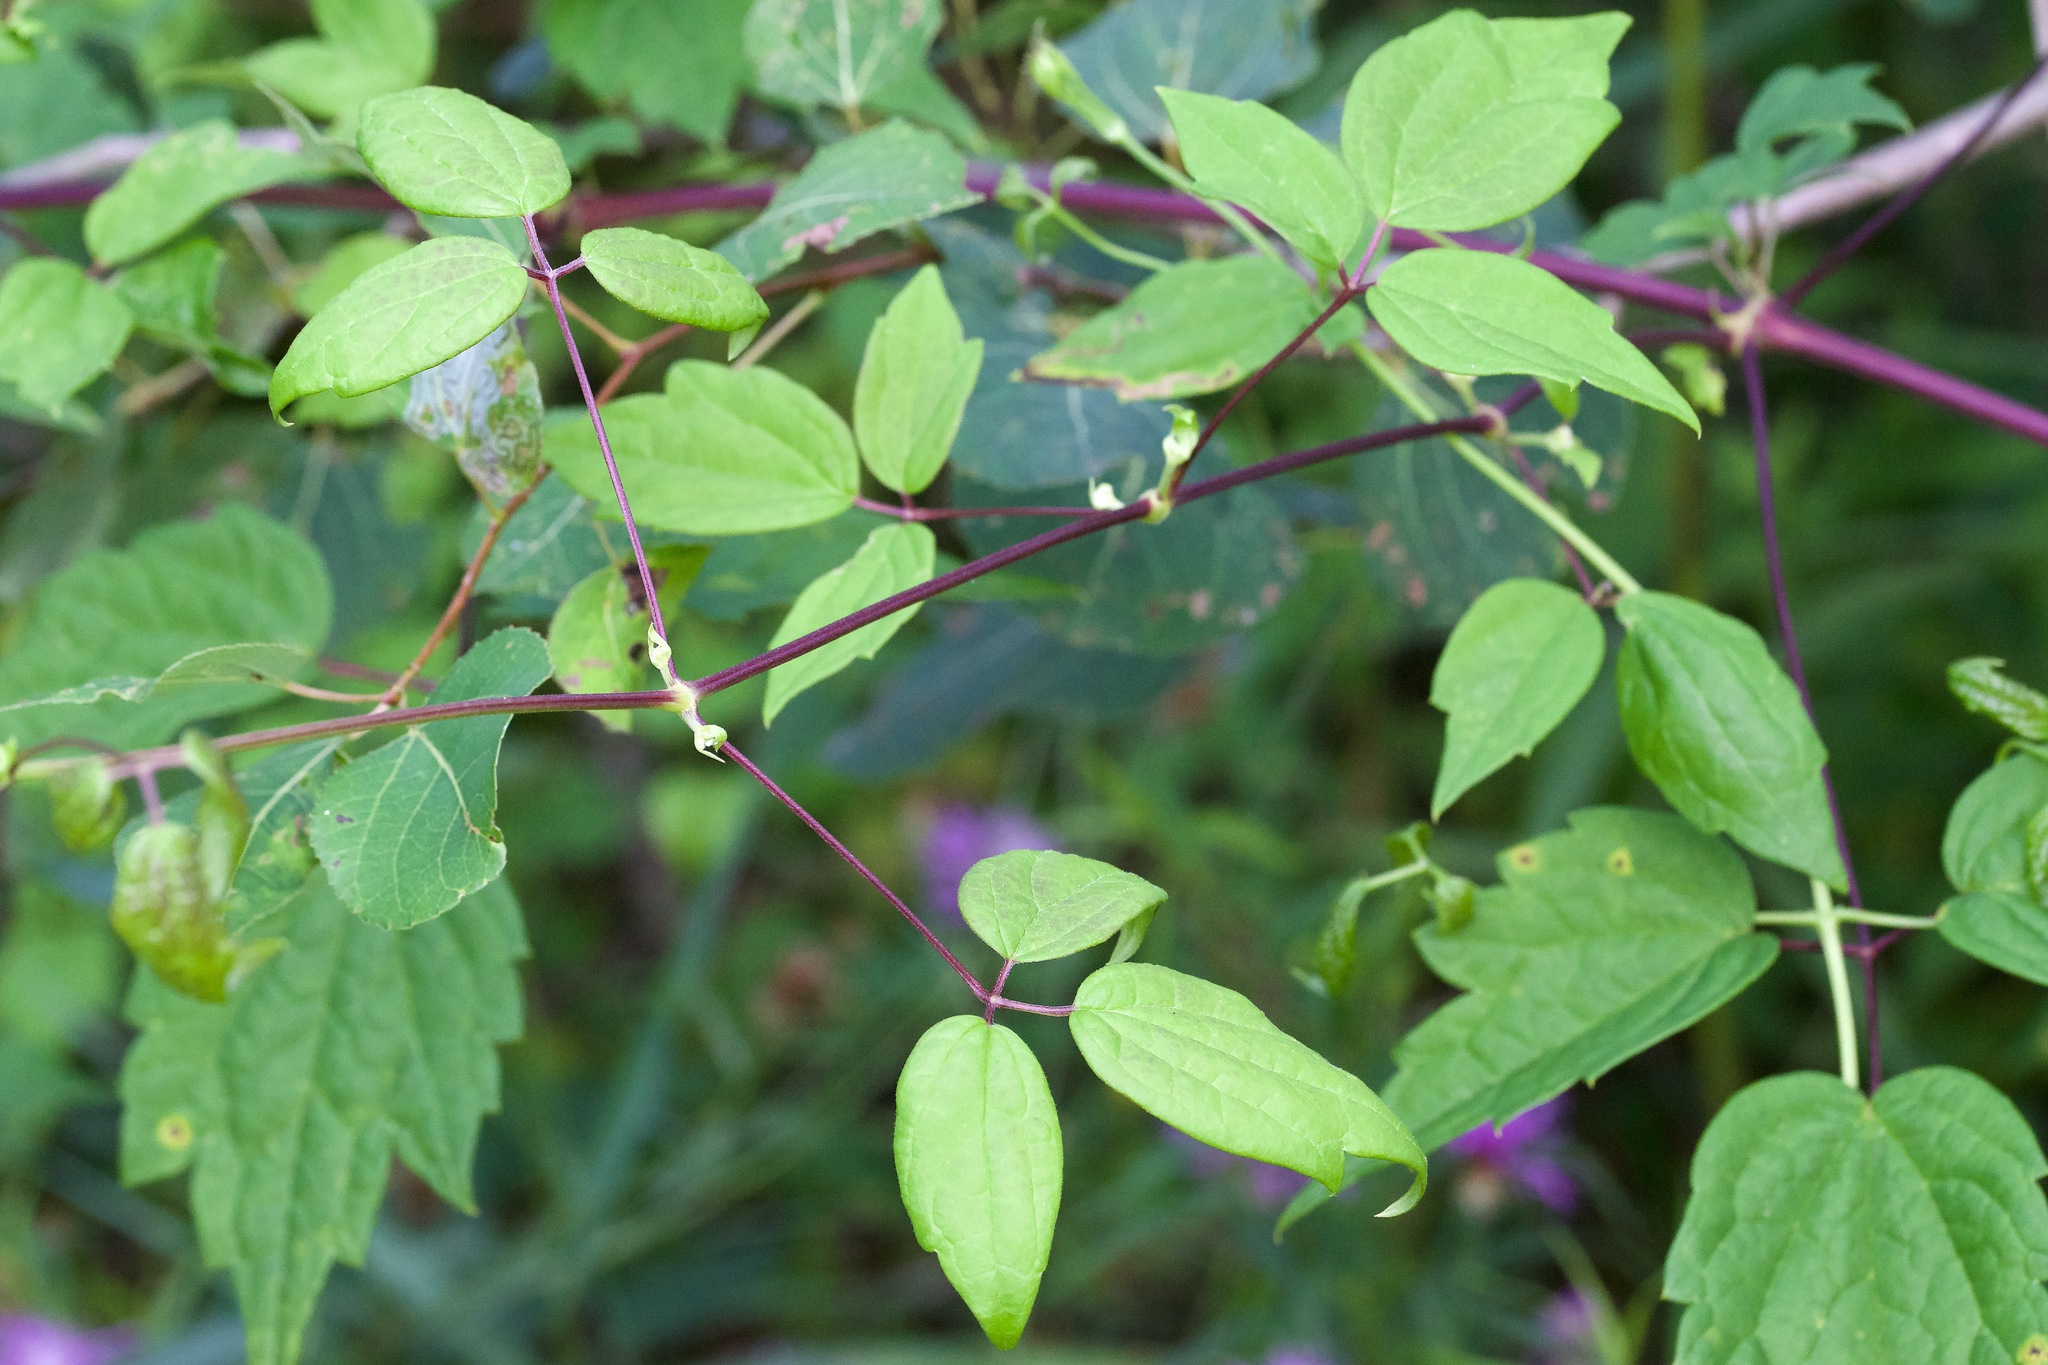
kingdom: Plantae
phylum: Tracheophyta
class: Magnoliopsida
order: Ranunculales
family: Ranunculaceae
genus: Clematis
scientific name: Clematis virginiana
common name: Virgin's-bower
